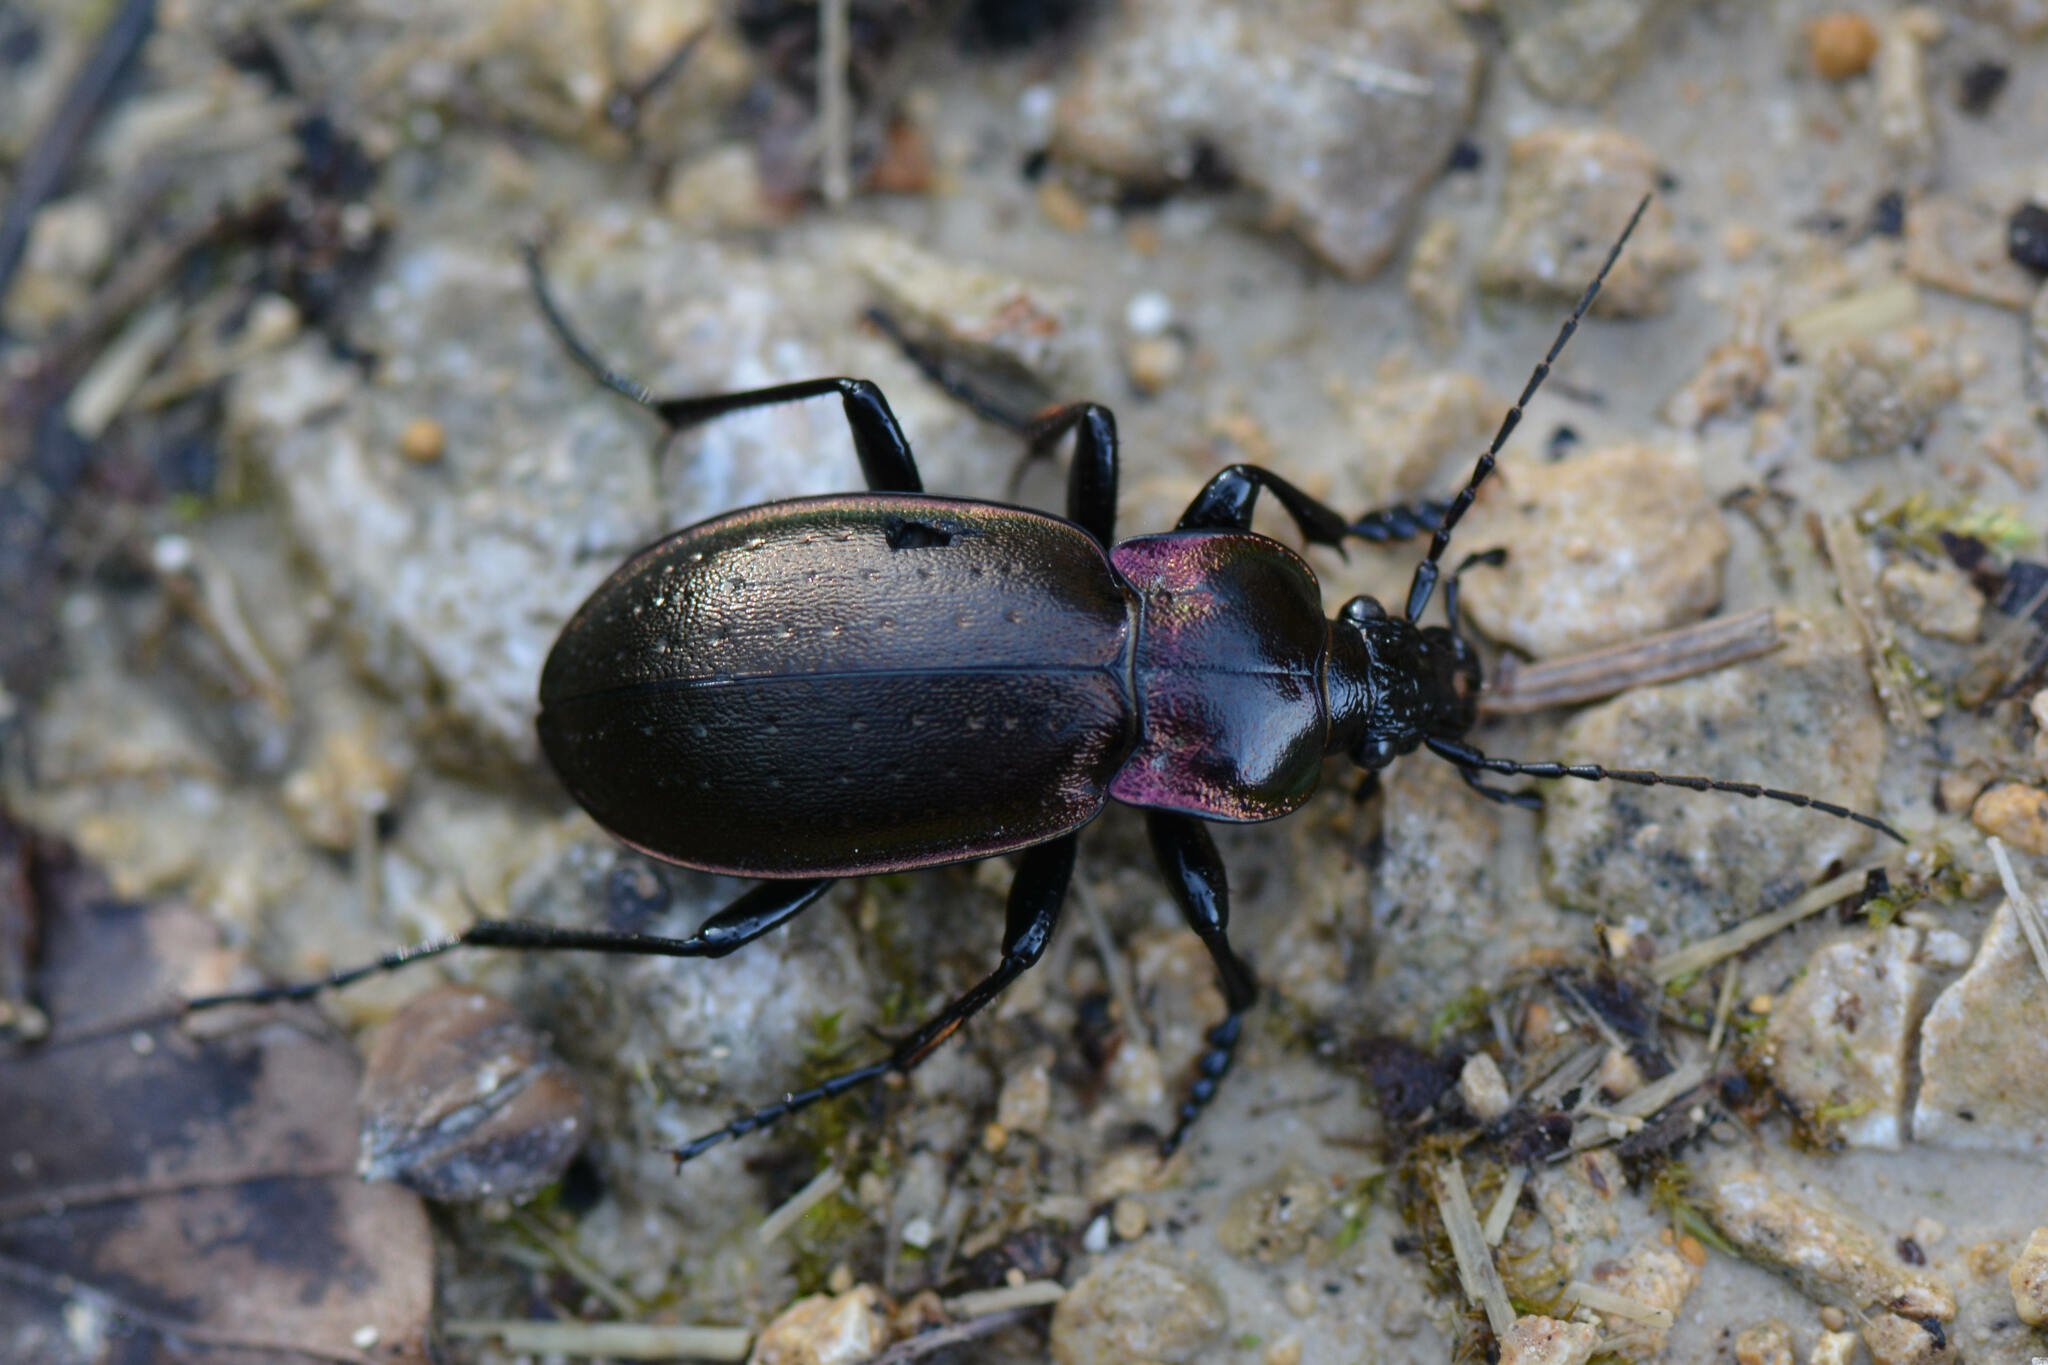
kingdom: Animalia
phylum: Arthropoda
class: Insecta
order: Coleoptera
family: Carabidae
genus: Carabus
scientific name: Carabus nemoralis
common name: European ground beetle
